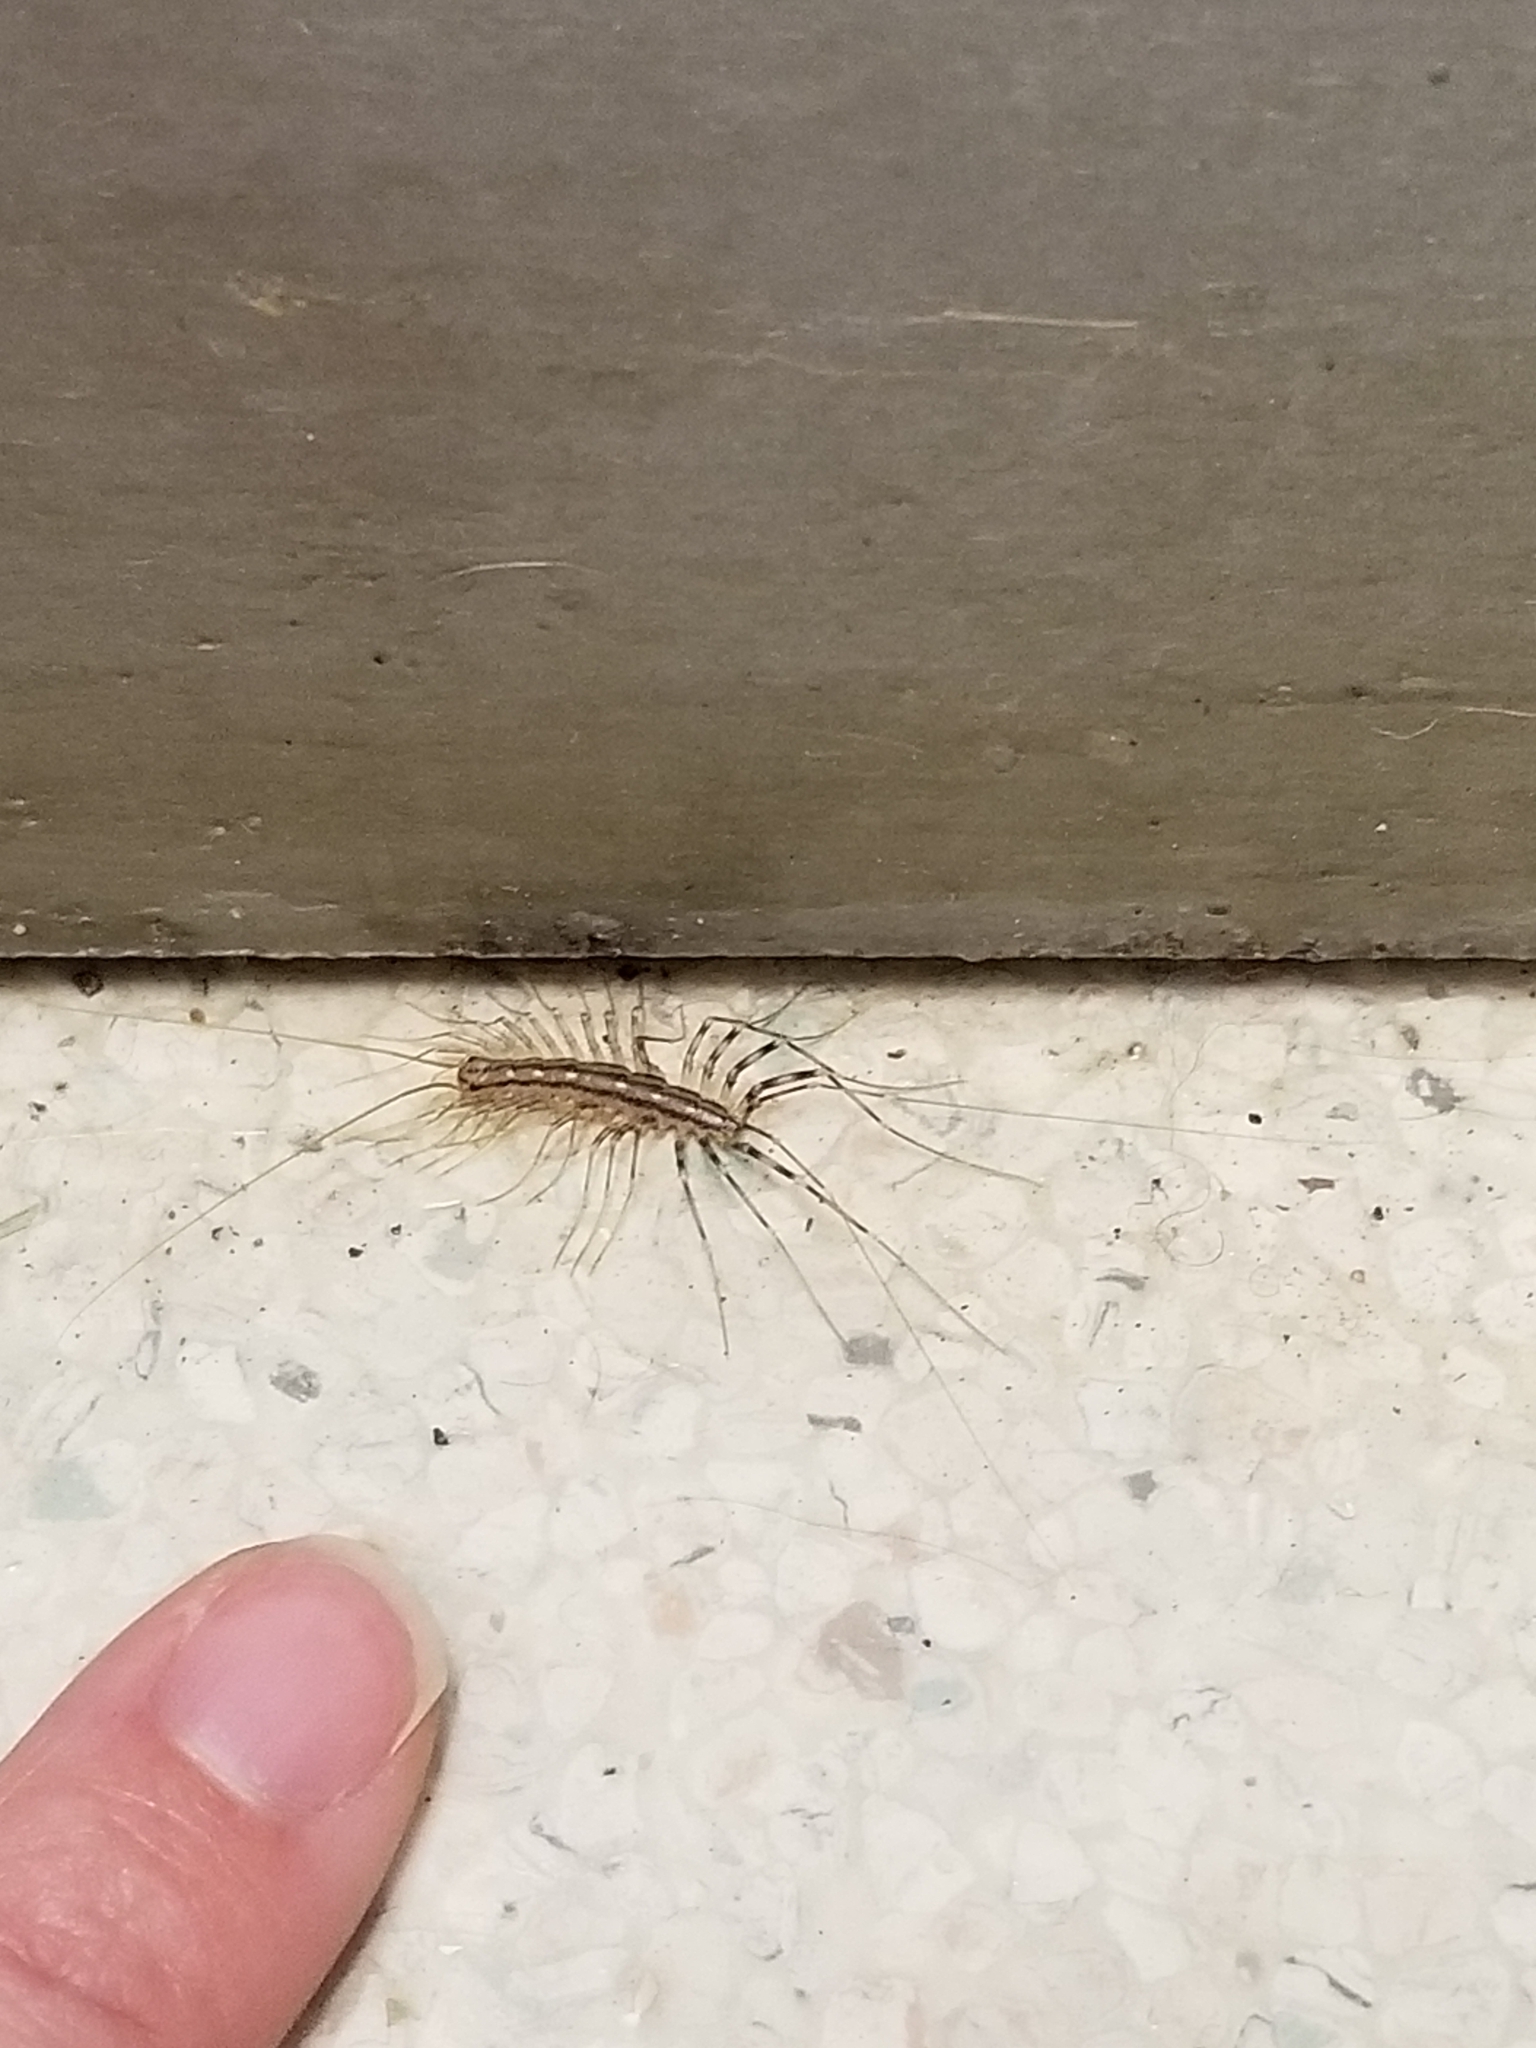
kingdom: Animalia
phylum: Arthropoda
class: Chilopoda
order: Scutigeromorpha
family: Scutigeridae
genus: Scutigera
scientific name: Scutigera coleoptrata
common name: House centipede
